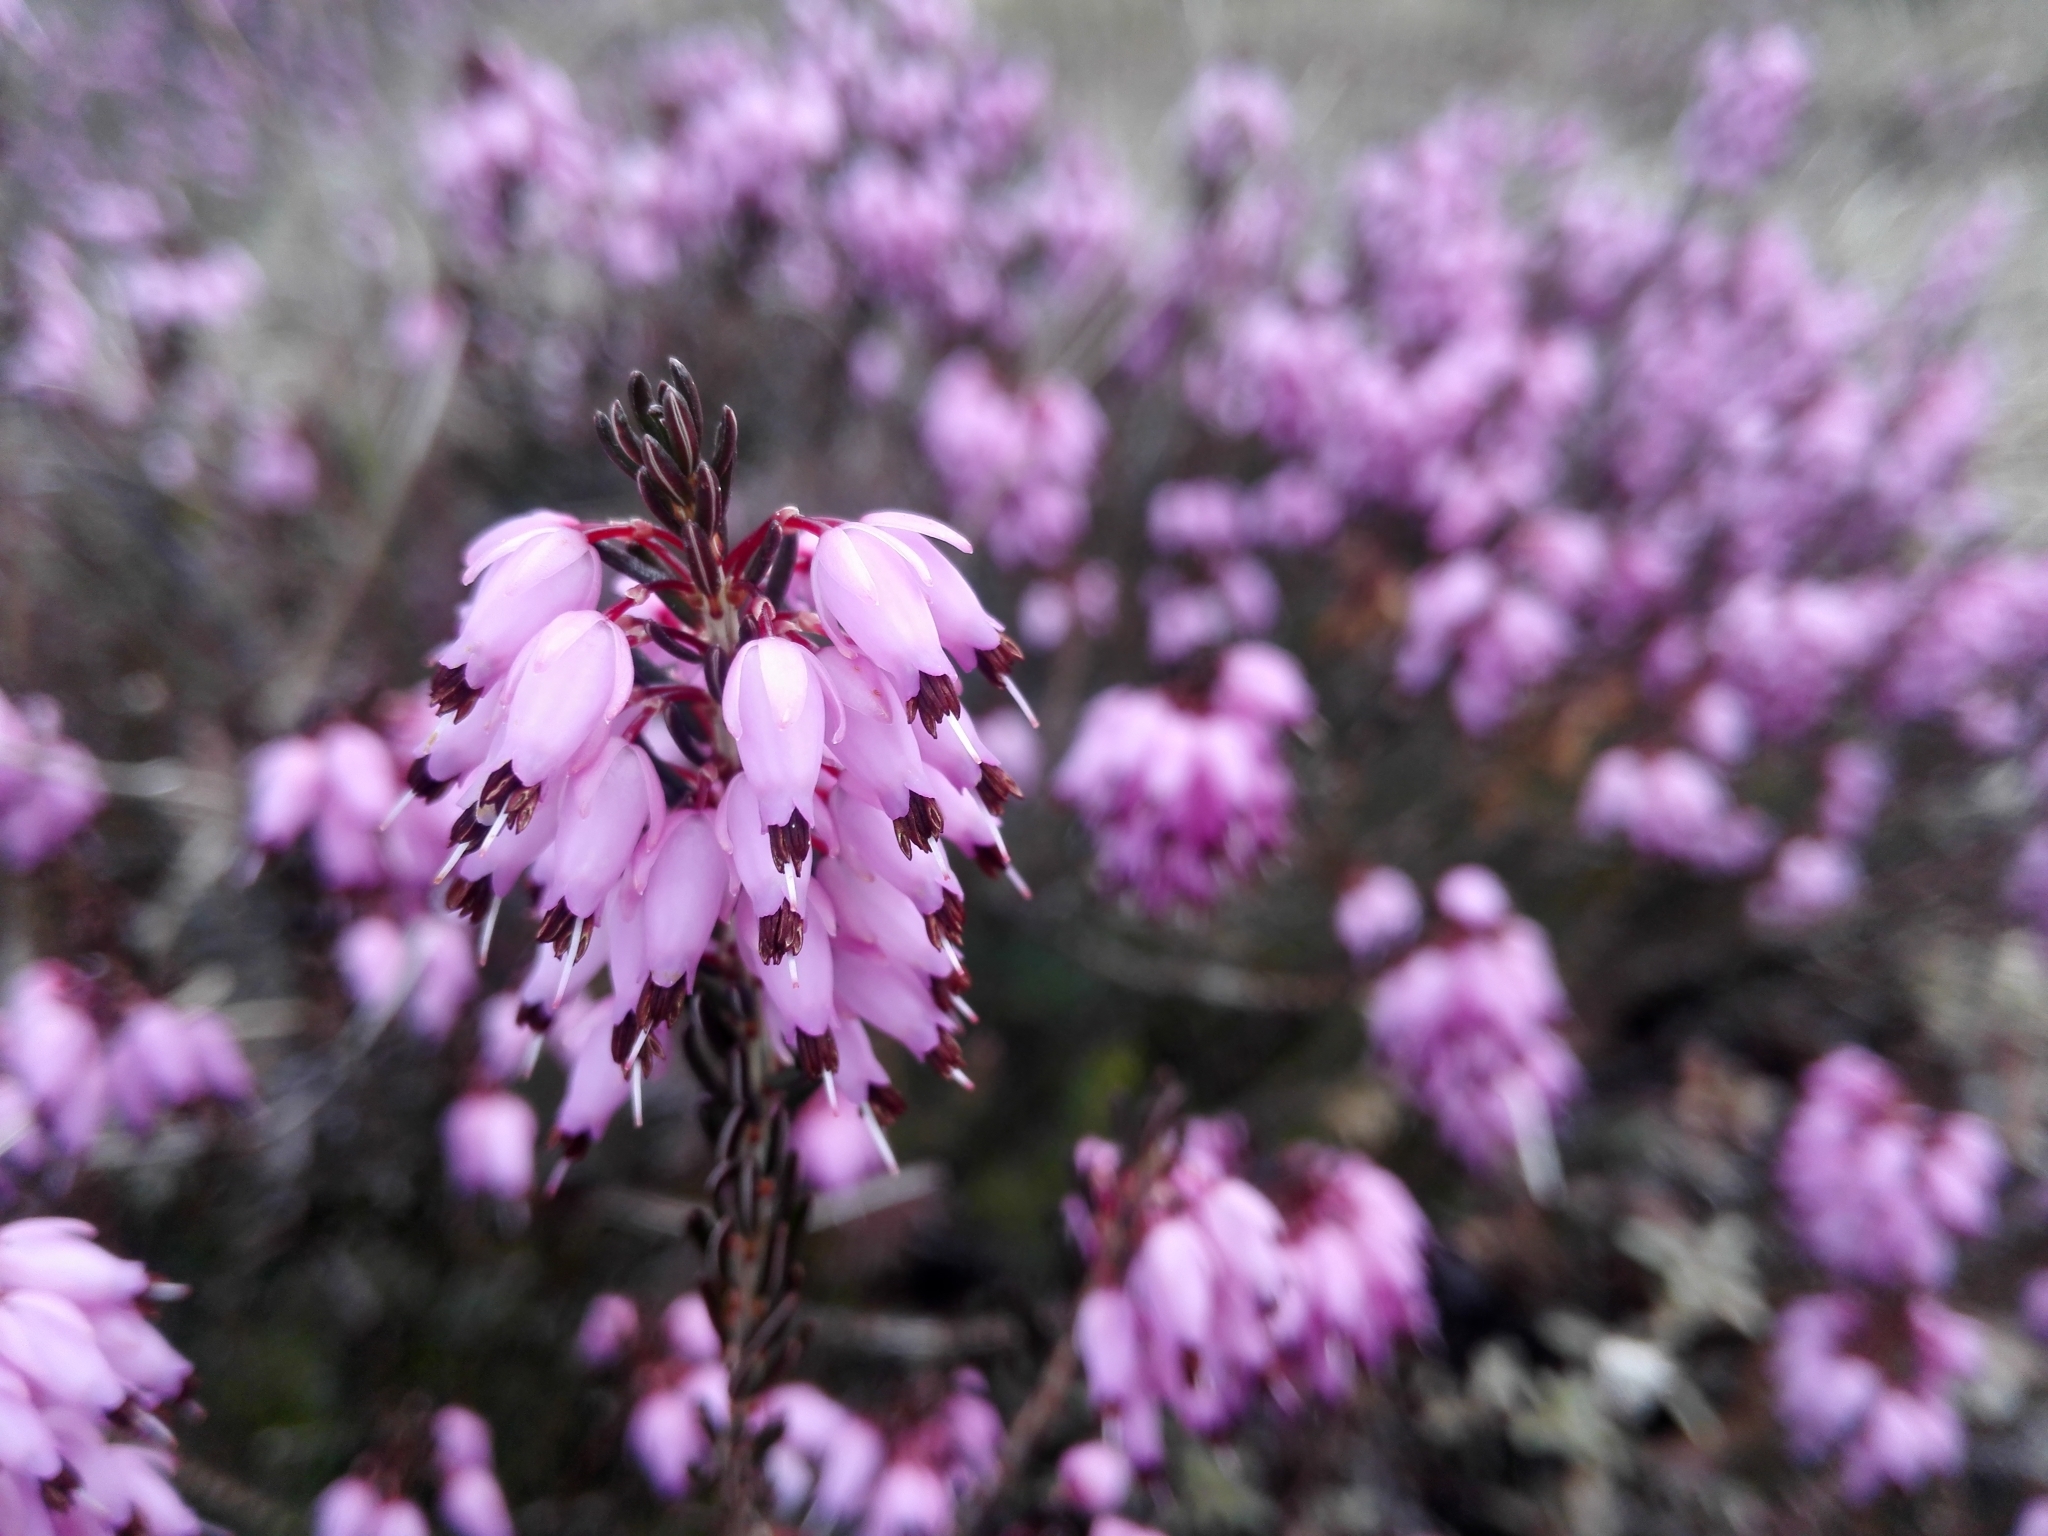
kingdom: Plantae
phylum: Tracheophyta
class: Magnoliopsida
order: Ericales
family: Ericaceae
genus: Erica
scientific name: Erica carnea
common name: Winter heath
